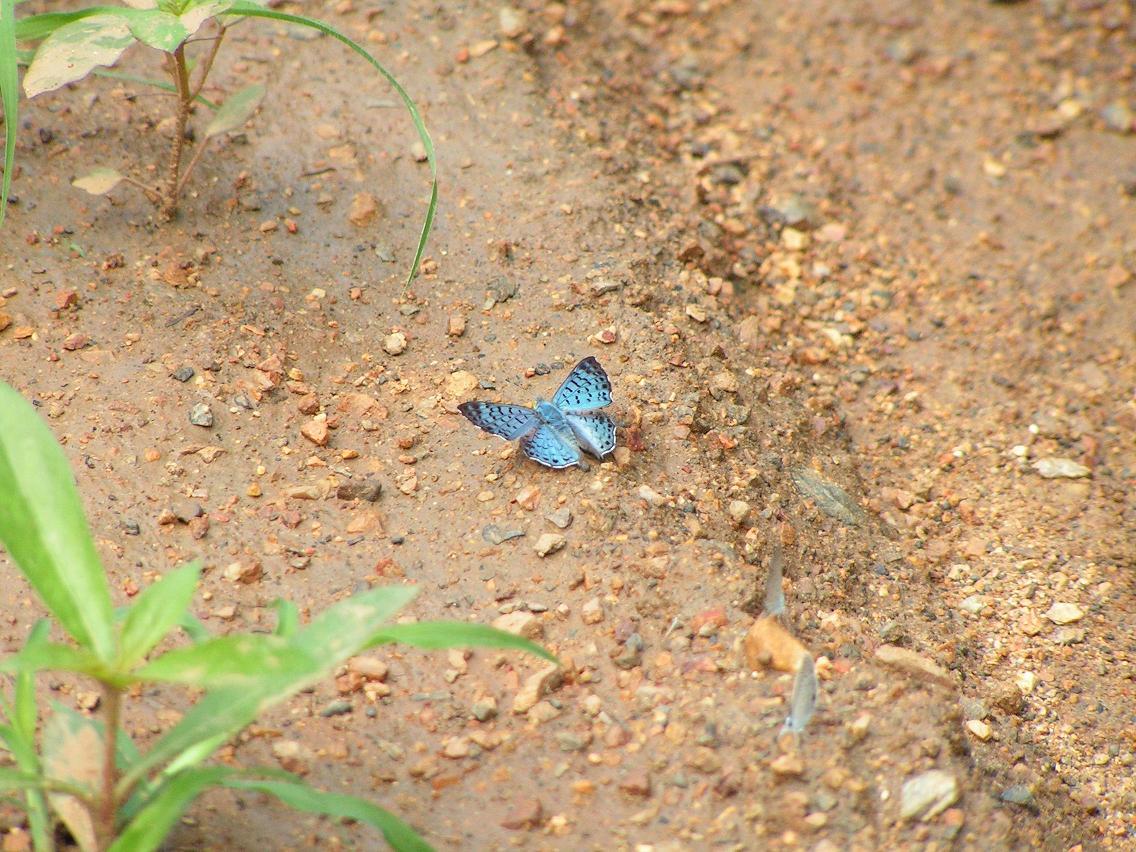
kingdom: Animalia
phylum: Arthropoda
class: Insecta
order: Lepidoptera
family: Riodinidae
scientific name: Riodinidae
